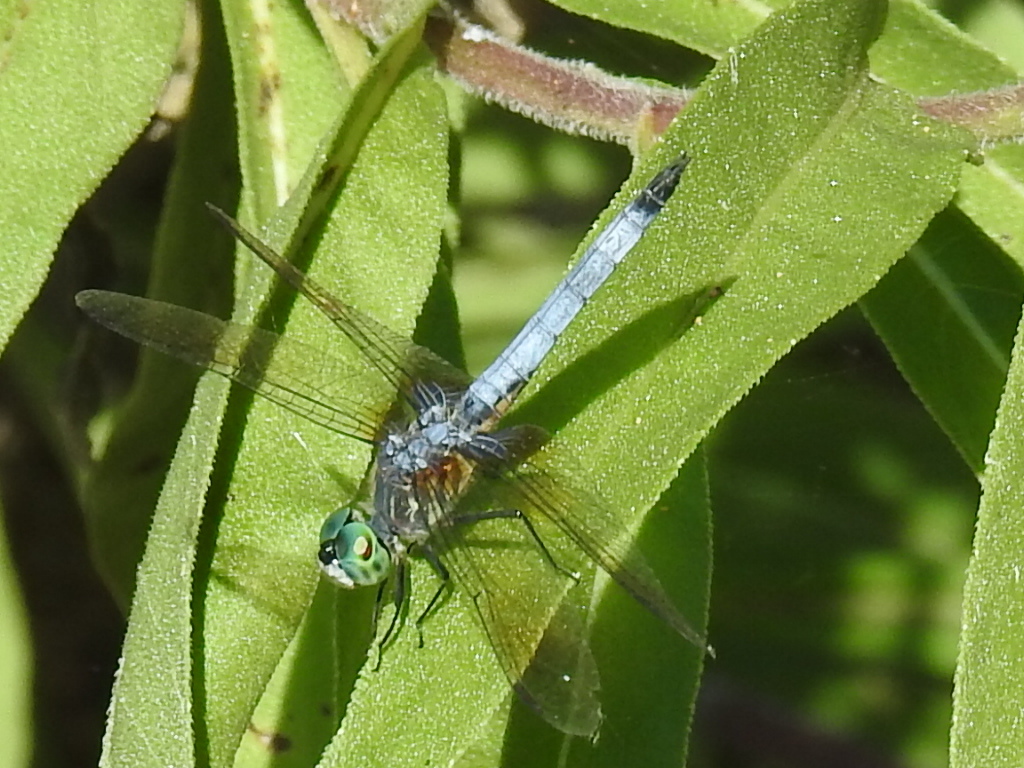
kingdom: Animalia
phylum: Arthropoda
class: Insecta
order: Odonata
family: Libellulidae
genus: Pachydiplax
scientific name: Pachydiplax longipennis
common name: Blue dasher
